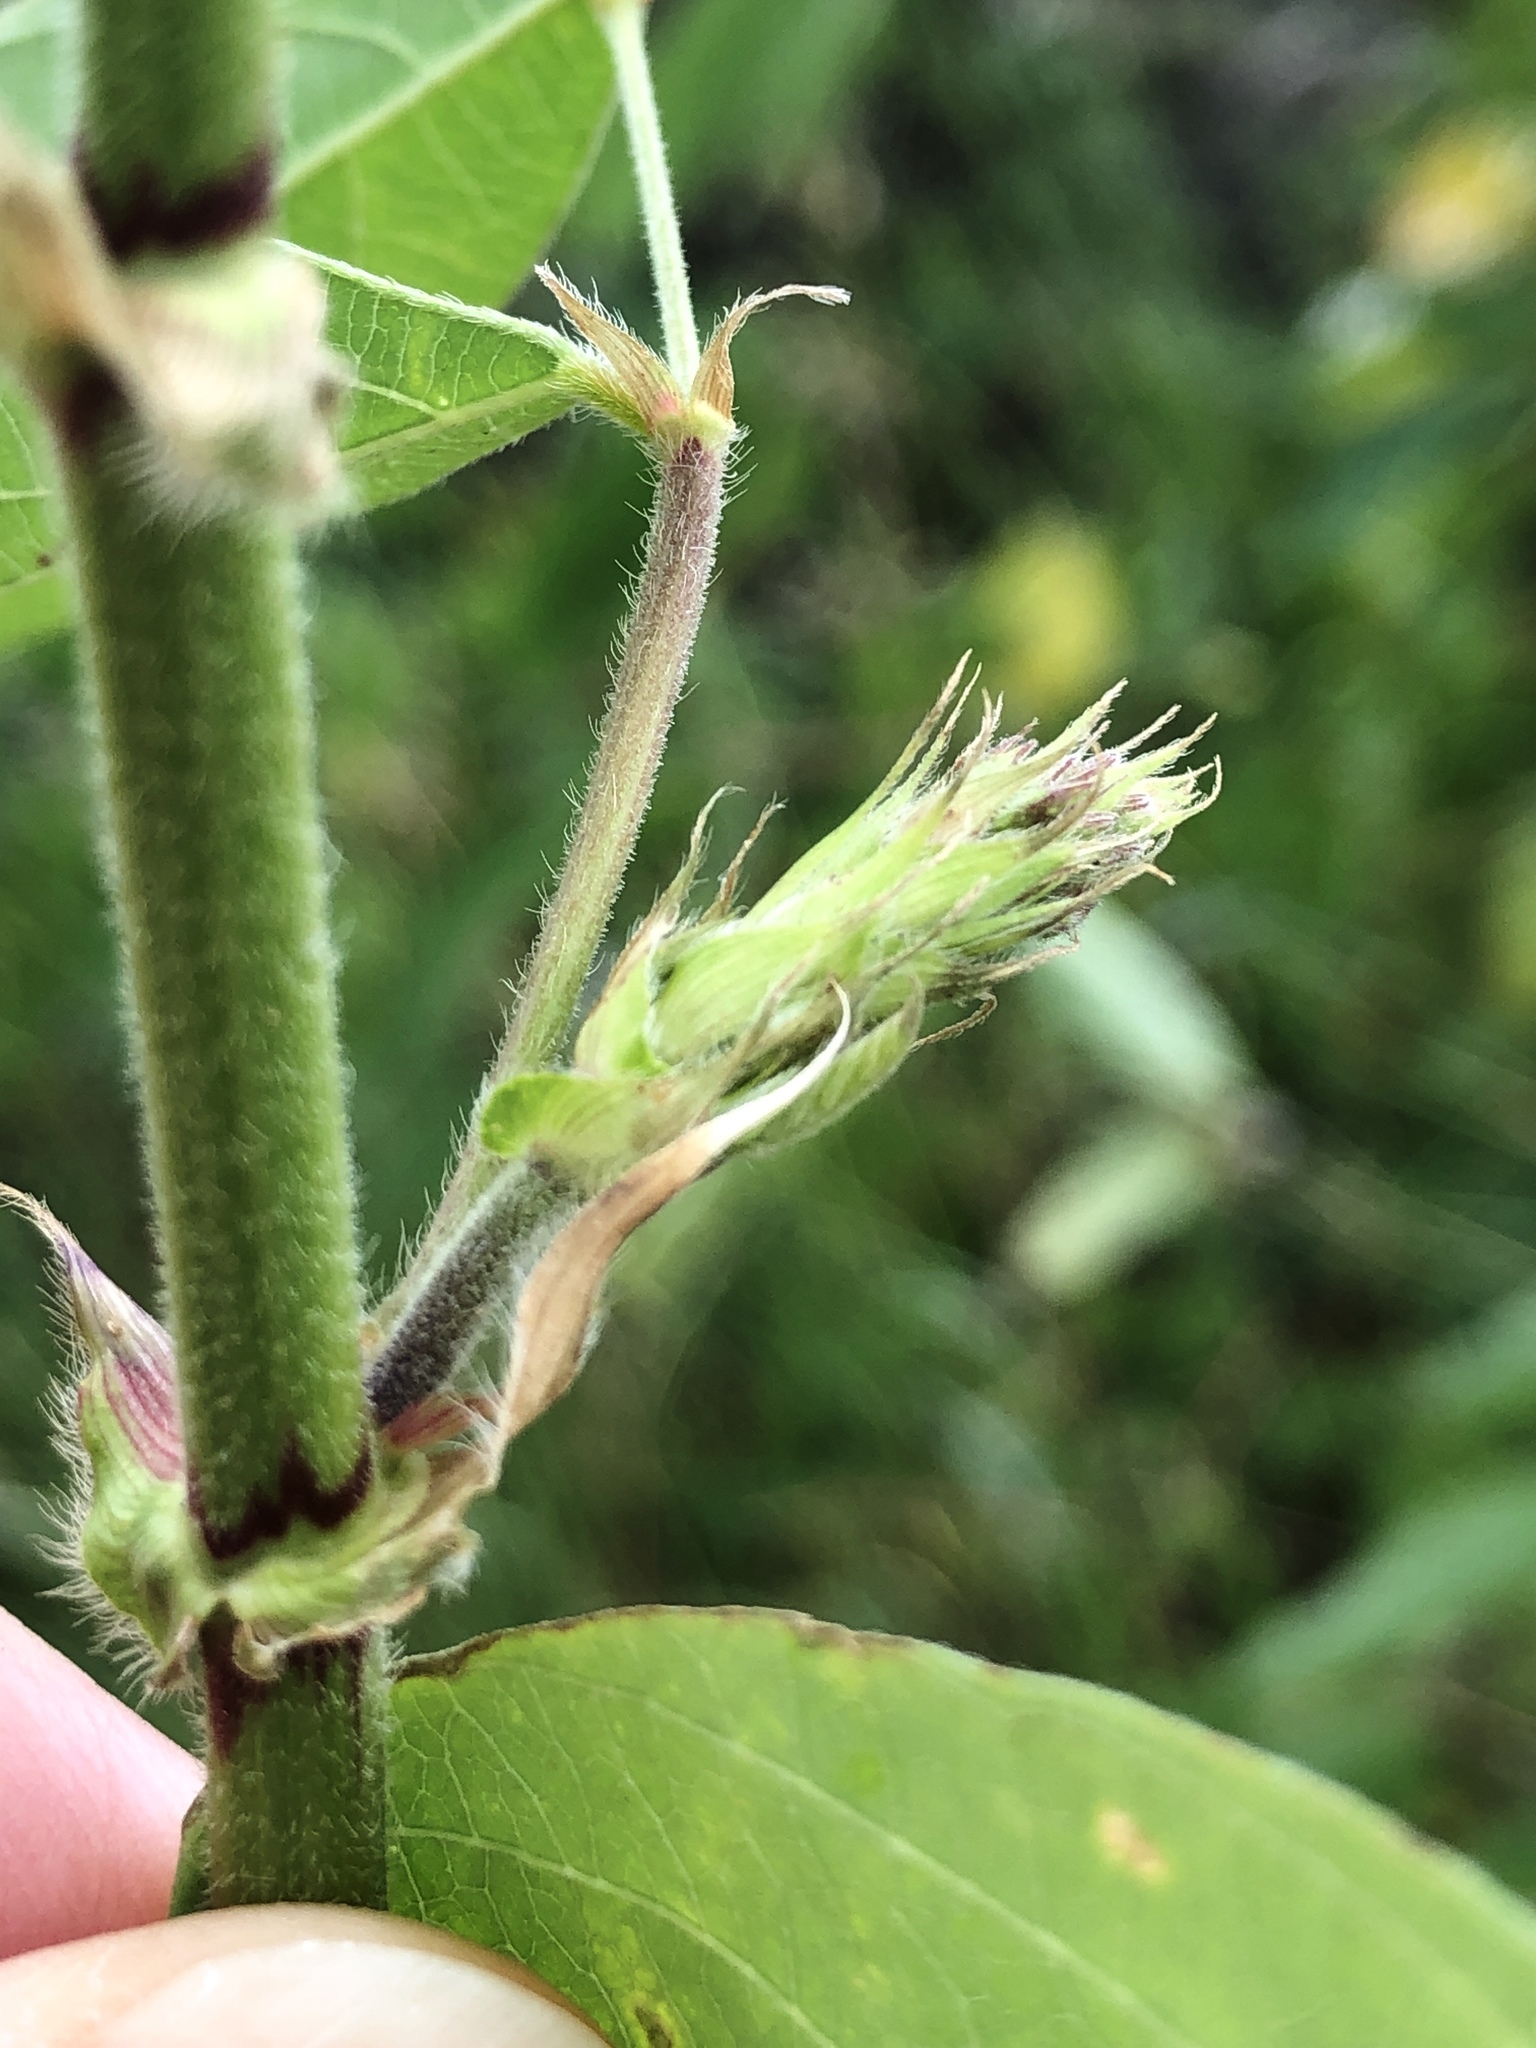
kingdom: Plantae
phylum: Tracheophyta
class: Magnoliopsida
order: Fabales
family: Fabaceae
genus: Desmodium
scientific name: Desmodium tortuosum
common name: Dixie ticktrefoil
